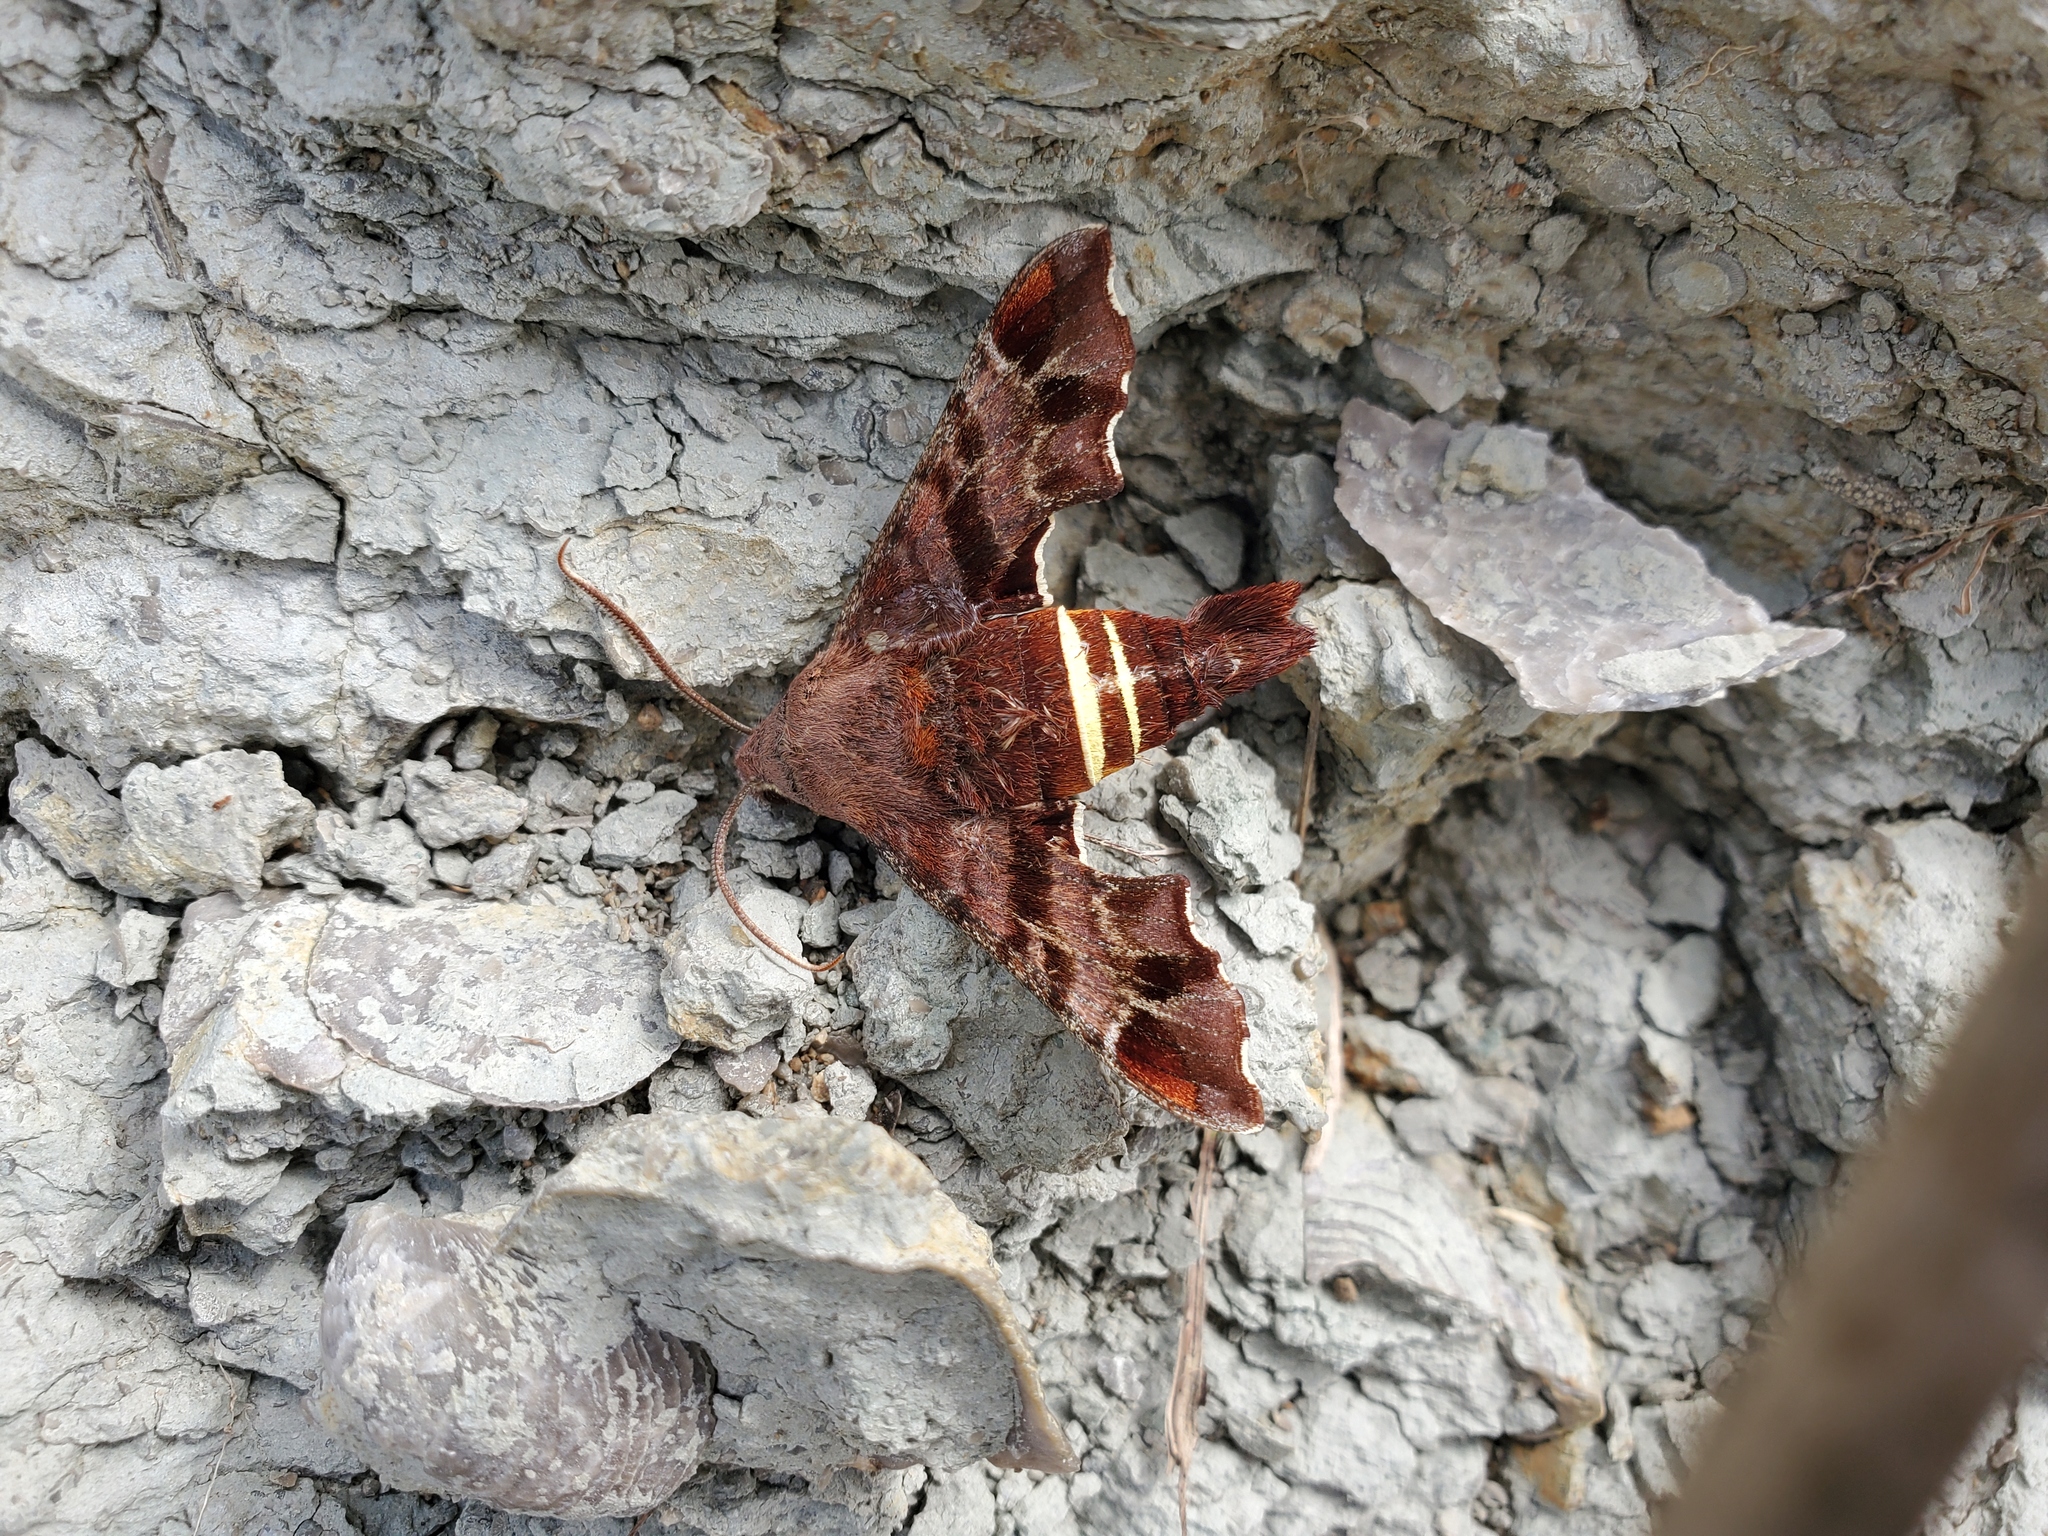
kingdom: Animalia
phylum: Arthropoda
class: Insecta
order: Lepidoptera
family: Sphingidae
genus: Amphion
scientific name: Amphion floridensis
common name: Nessus sphinx
